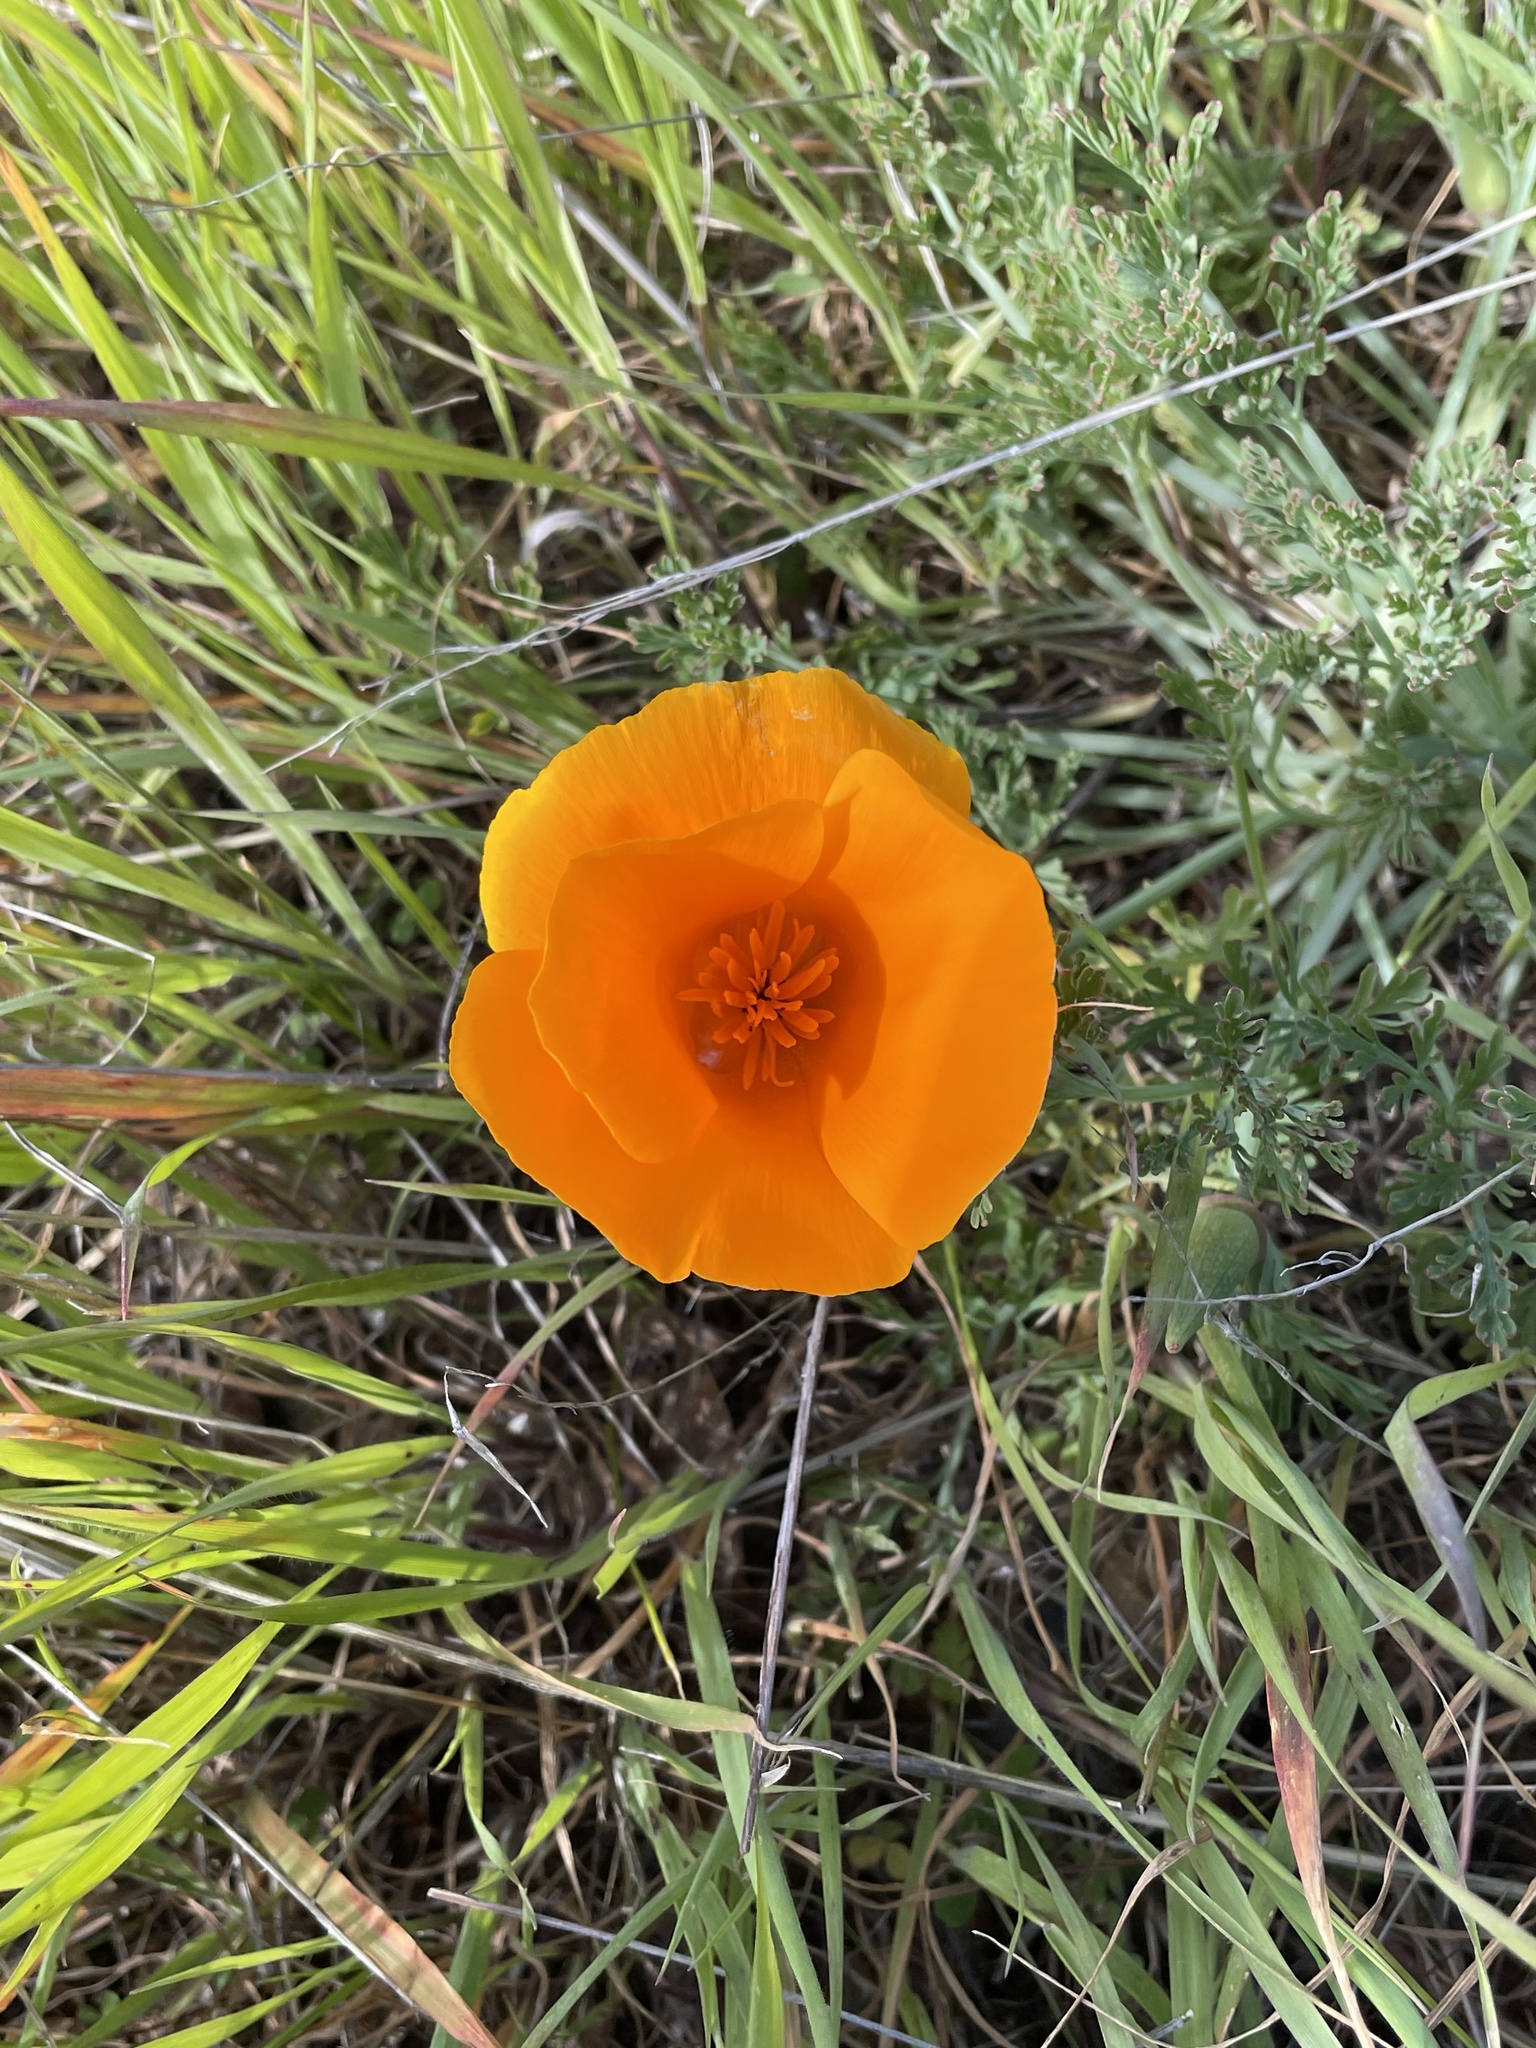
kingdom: Plantae
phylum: Tracheophyta
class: Magnoliopsida
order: Ranunculales
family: Papaveraceae
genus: Eschscholzia
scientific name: Eschscholzia californica
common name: California poppy
